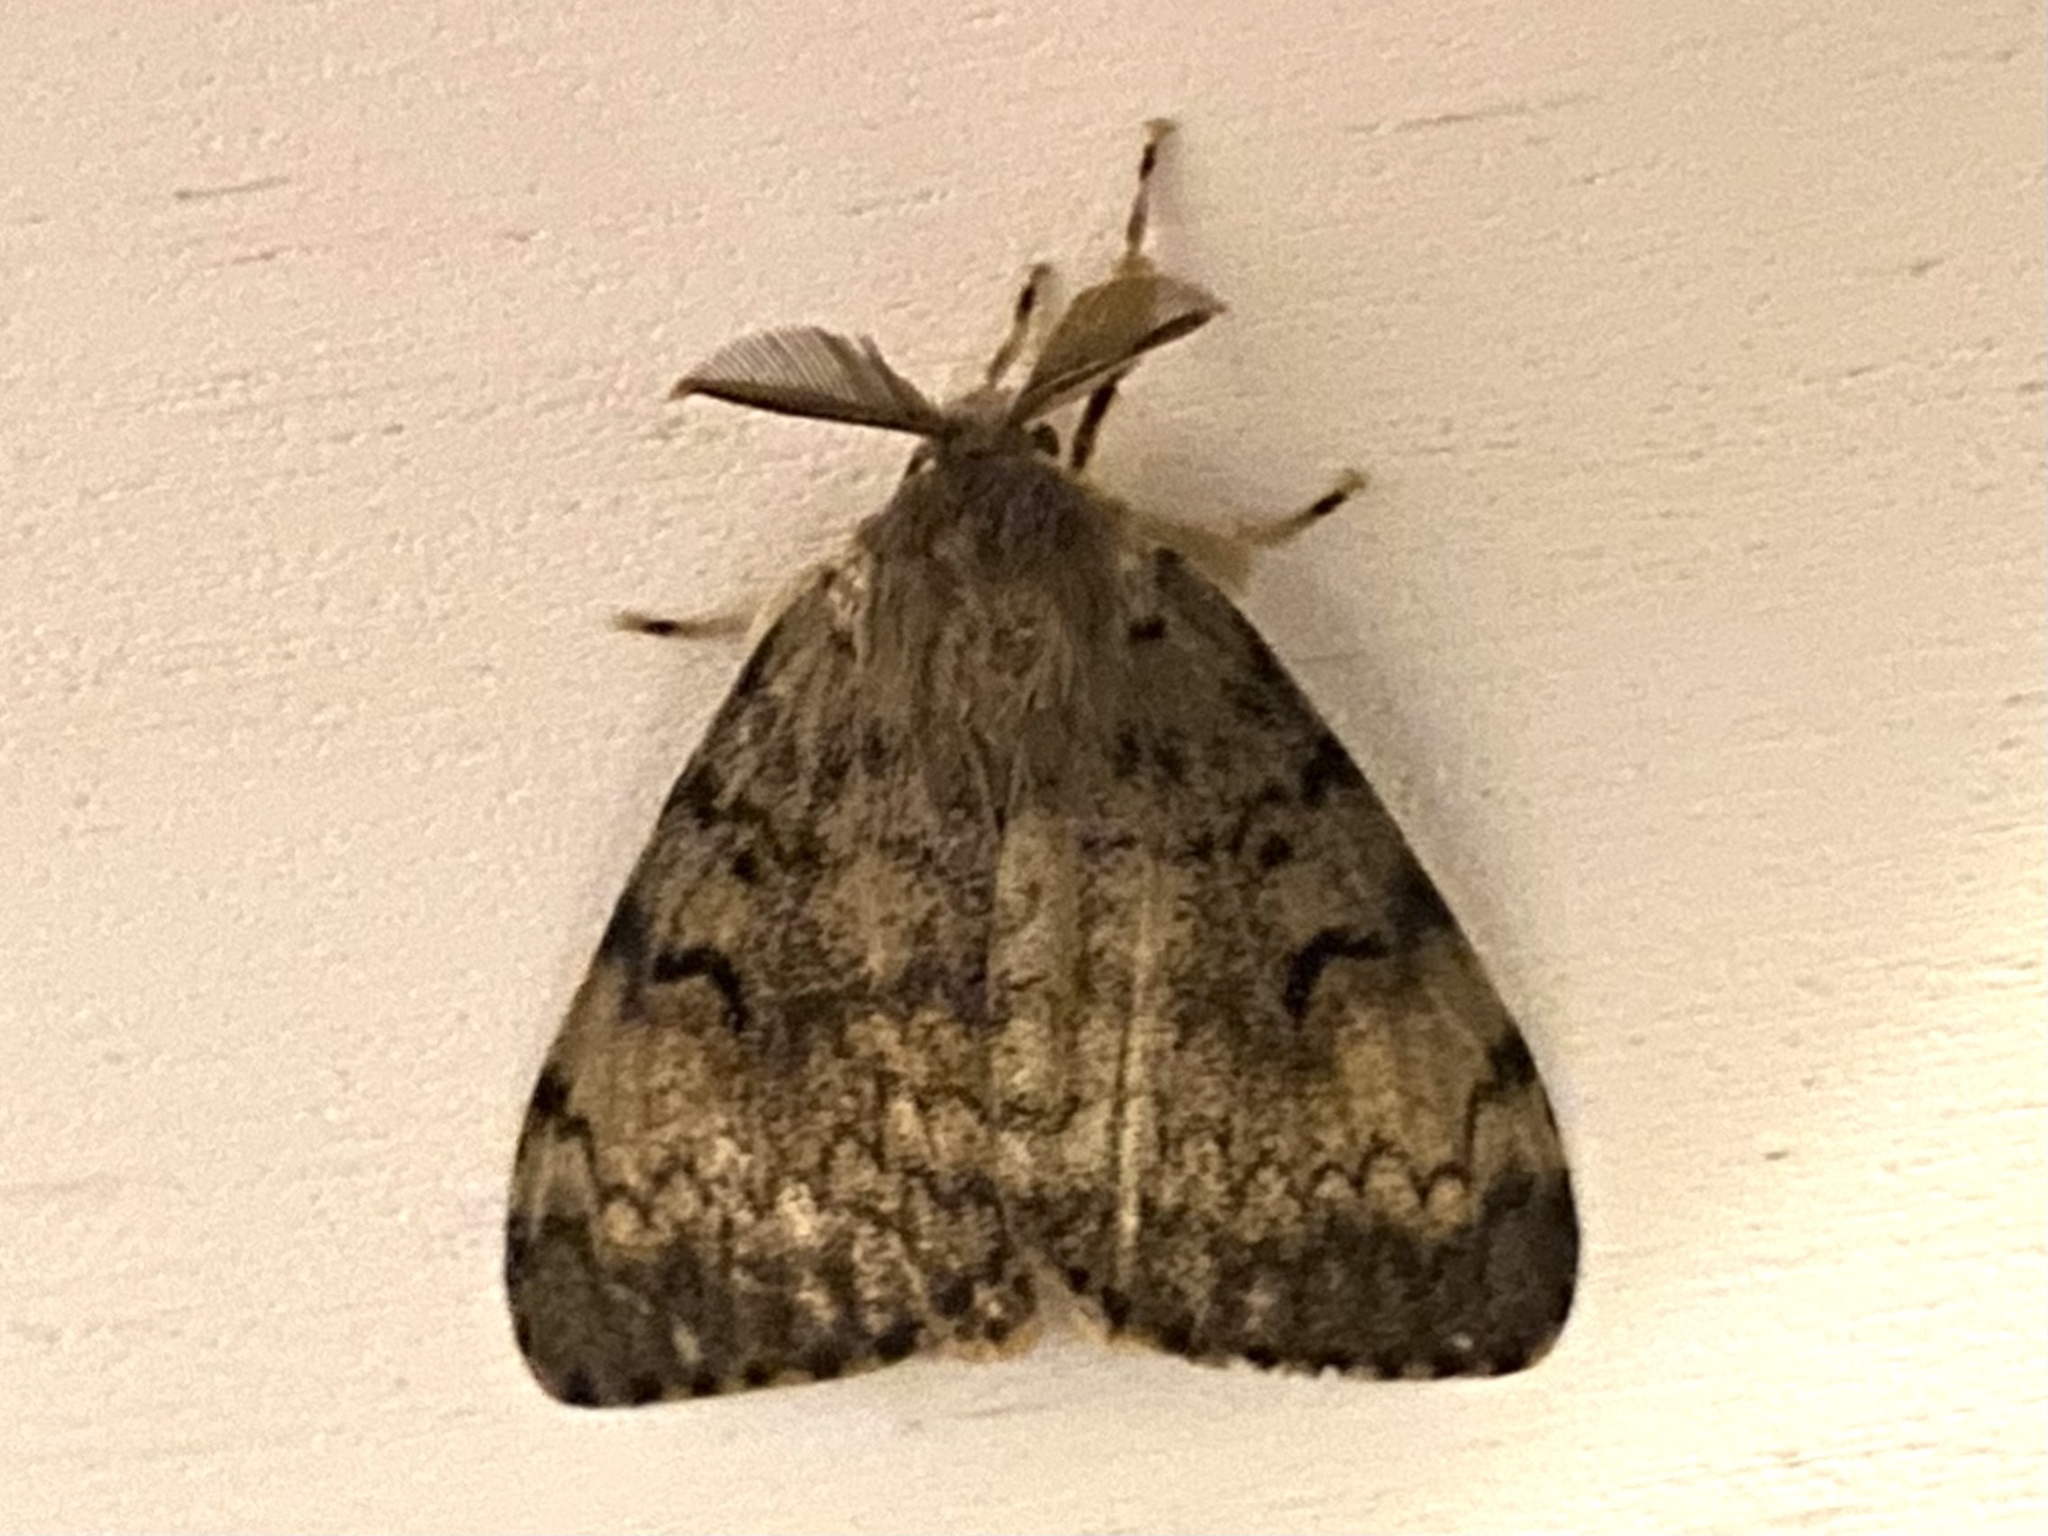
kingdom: Animalia
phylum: Arthropoda
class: Insecta
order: Lepidoptera
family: Erebidae
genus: Lymantria
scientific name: Lymantria dispar
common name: Gypsy moth
